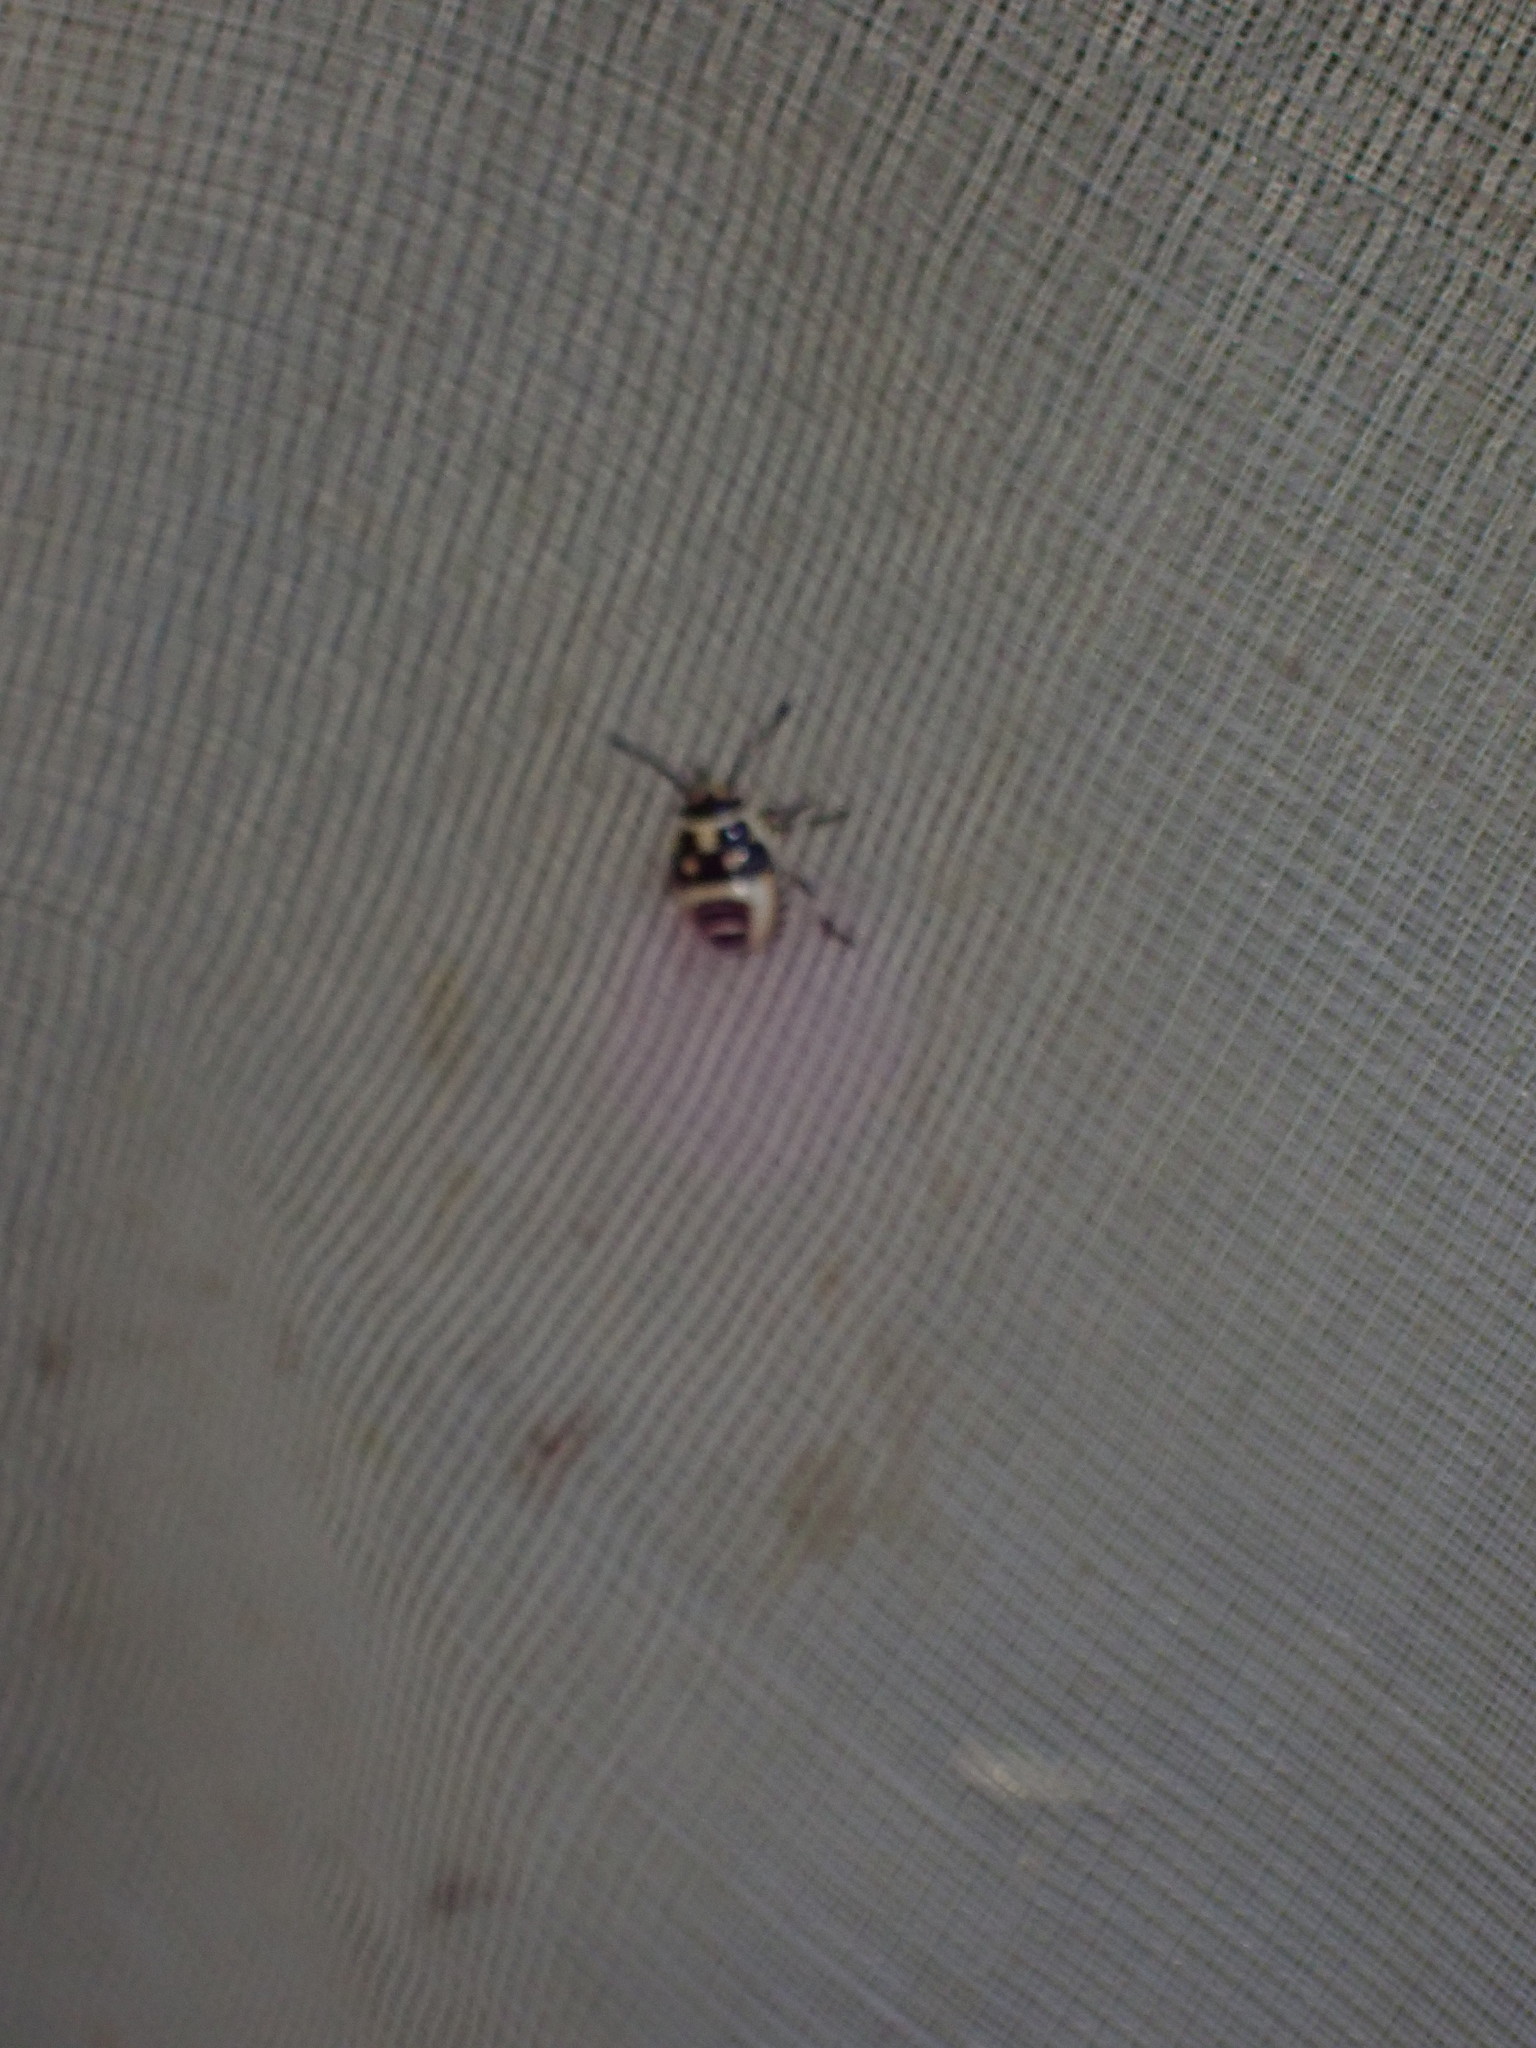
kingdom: Animalia
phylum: Arthropoda
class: Insecta
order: Hemiptera
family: Pentatomidae
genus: Eurydema
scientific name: Eurydema oleracea
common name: Cabbage bug
